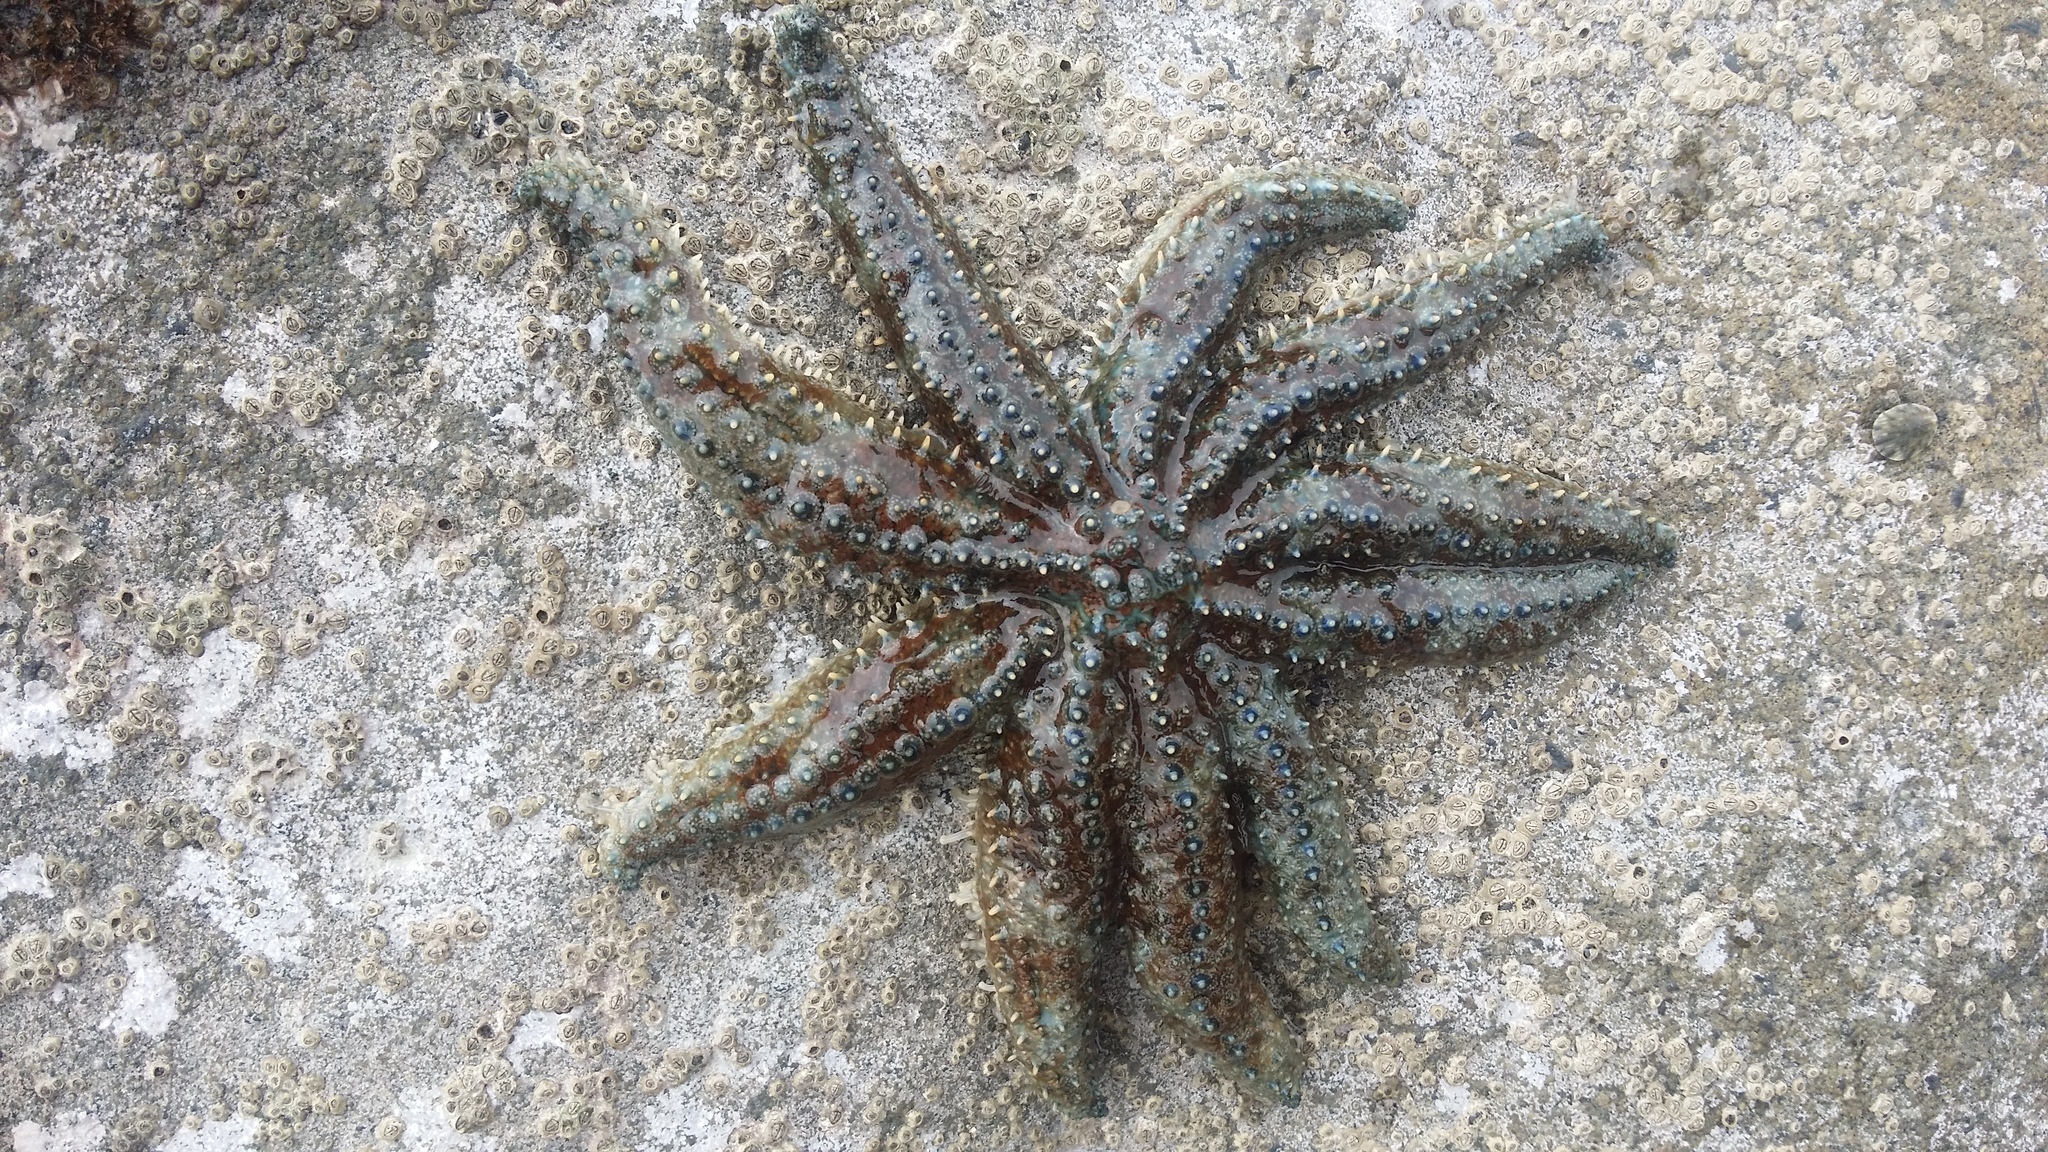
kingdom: Animalia
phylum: Echinodermata
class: Asteroidea
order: Forcipulatida
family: Asteriidae
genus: Coscinasterias
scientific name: Coscinasterias muricata
